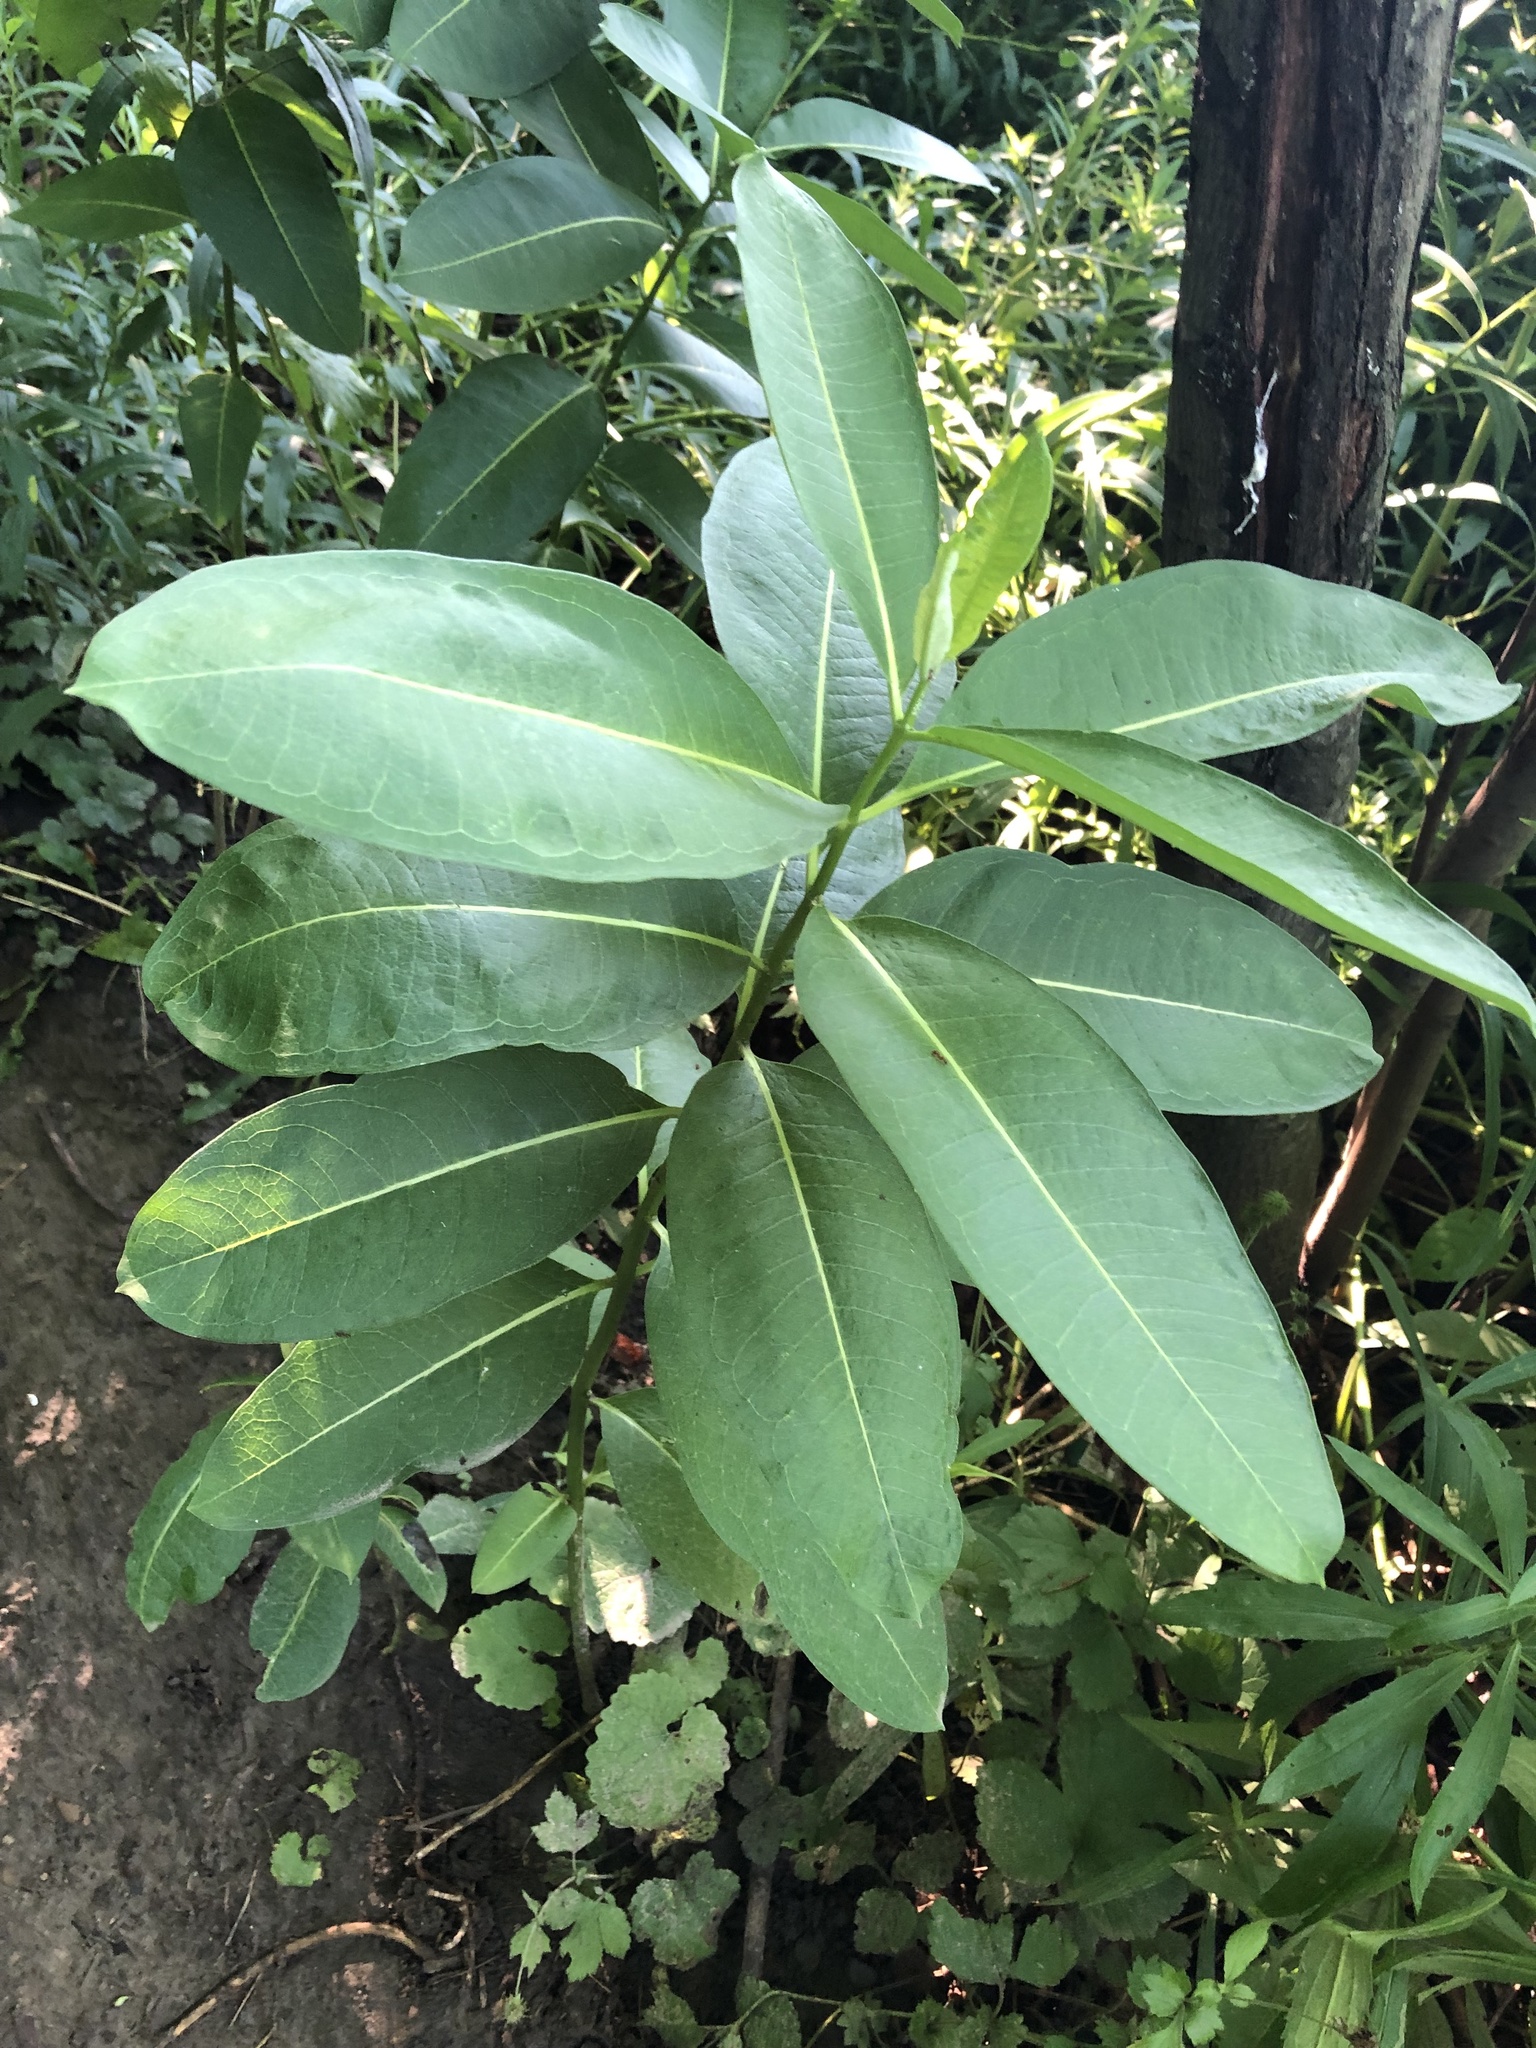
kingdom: Plantae
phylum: Tracheophyta
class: Magnoliopsida
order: Gentianales
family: Apocynaceae
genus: Asclepias
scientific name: Asclepias syriaca
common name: Common milkweed
